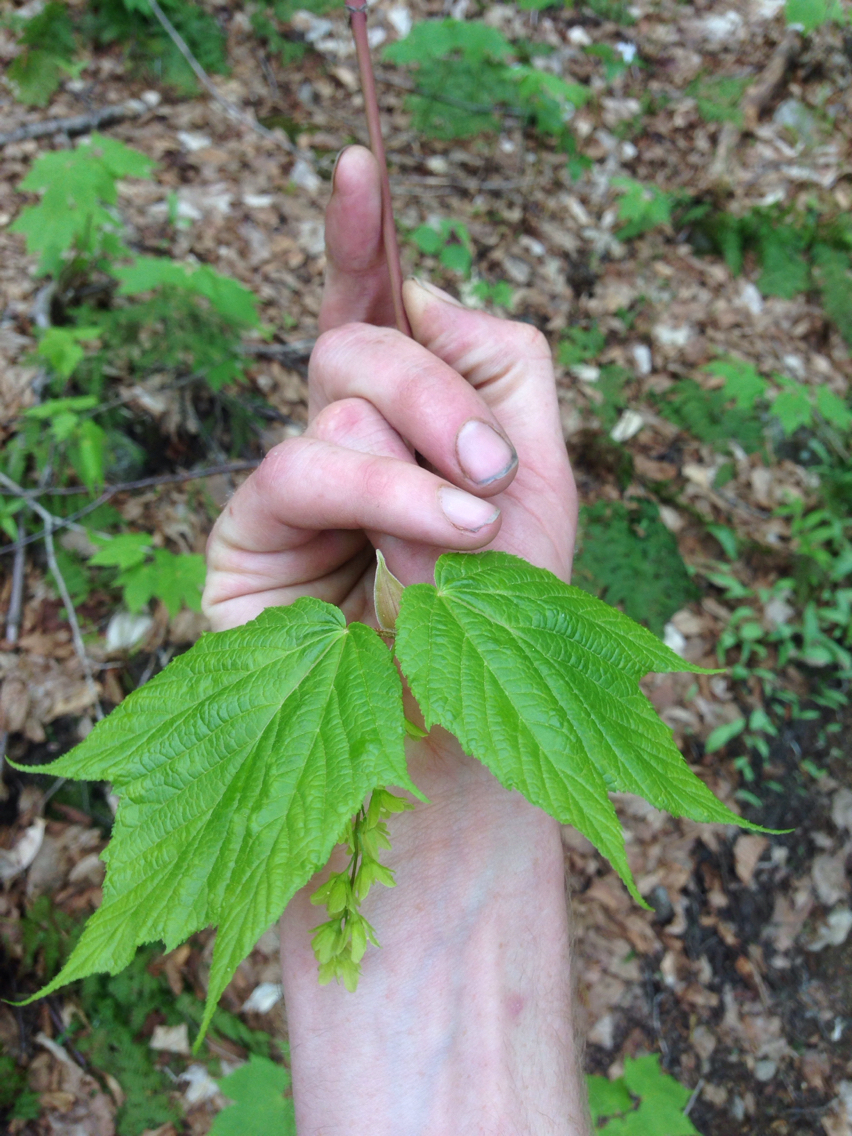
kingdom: Plantae
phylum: Tracheophyta
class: Magnoliopsida
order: Sapindales
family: Sapindaceae
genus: Acer
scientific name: Acer pensylvanicum
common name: Moosewood
